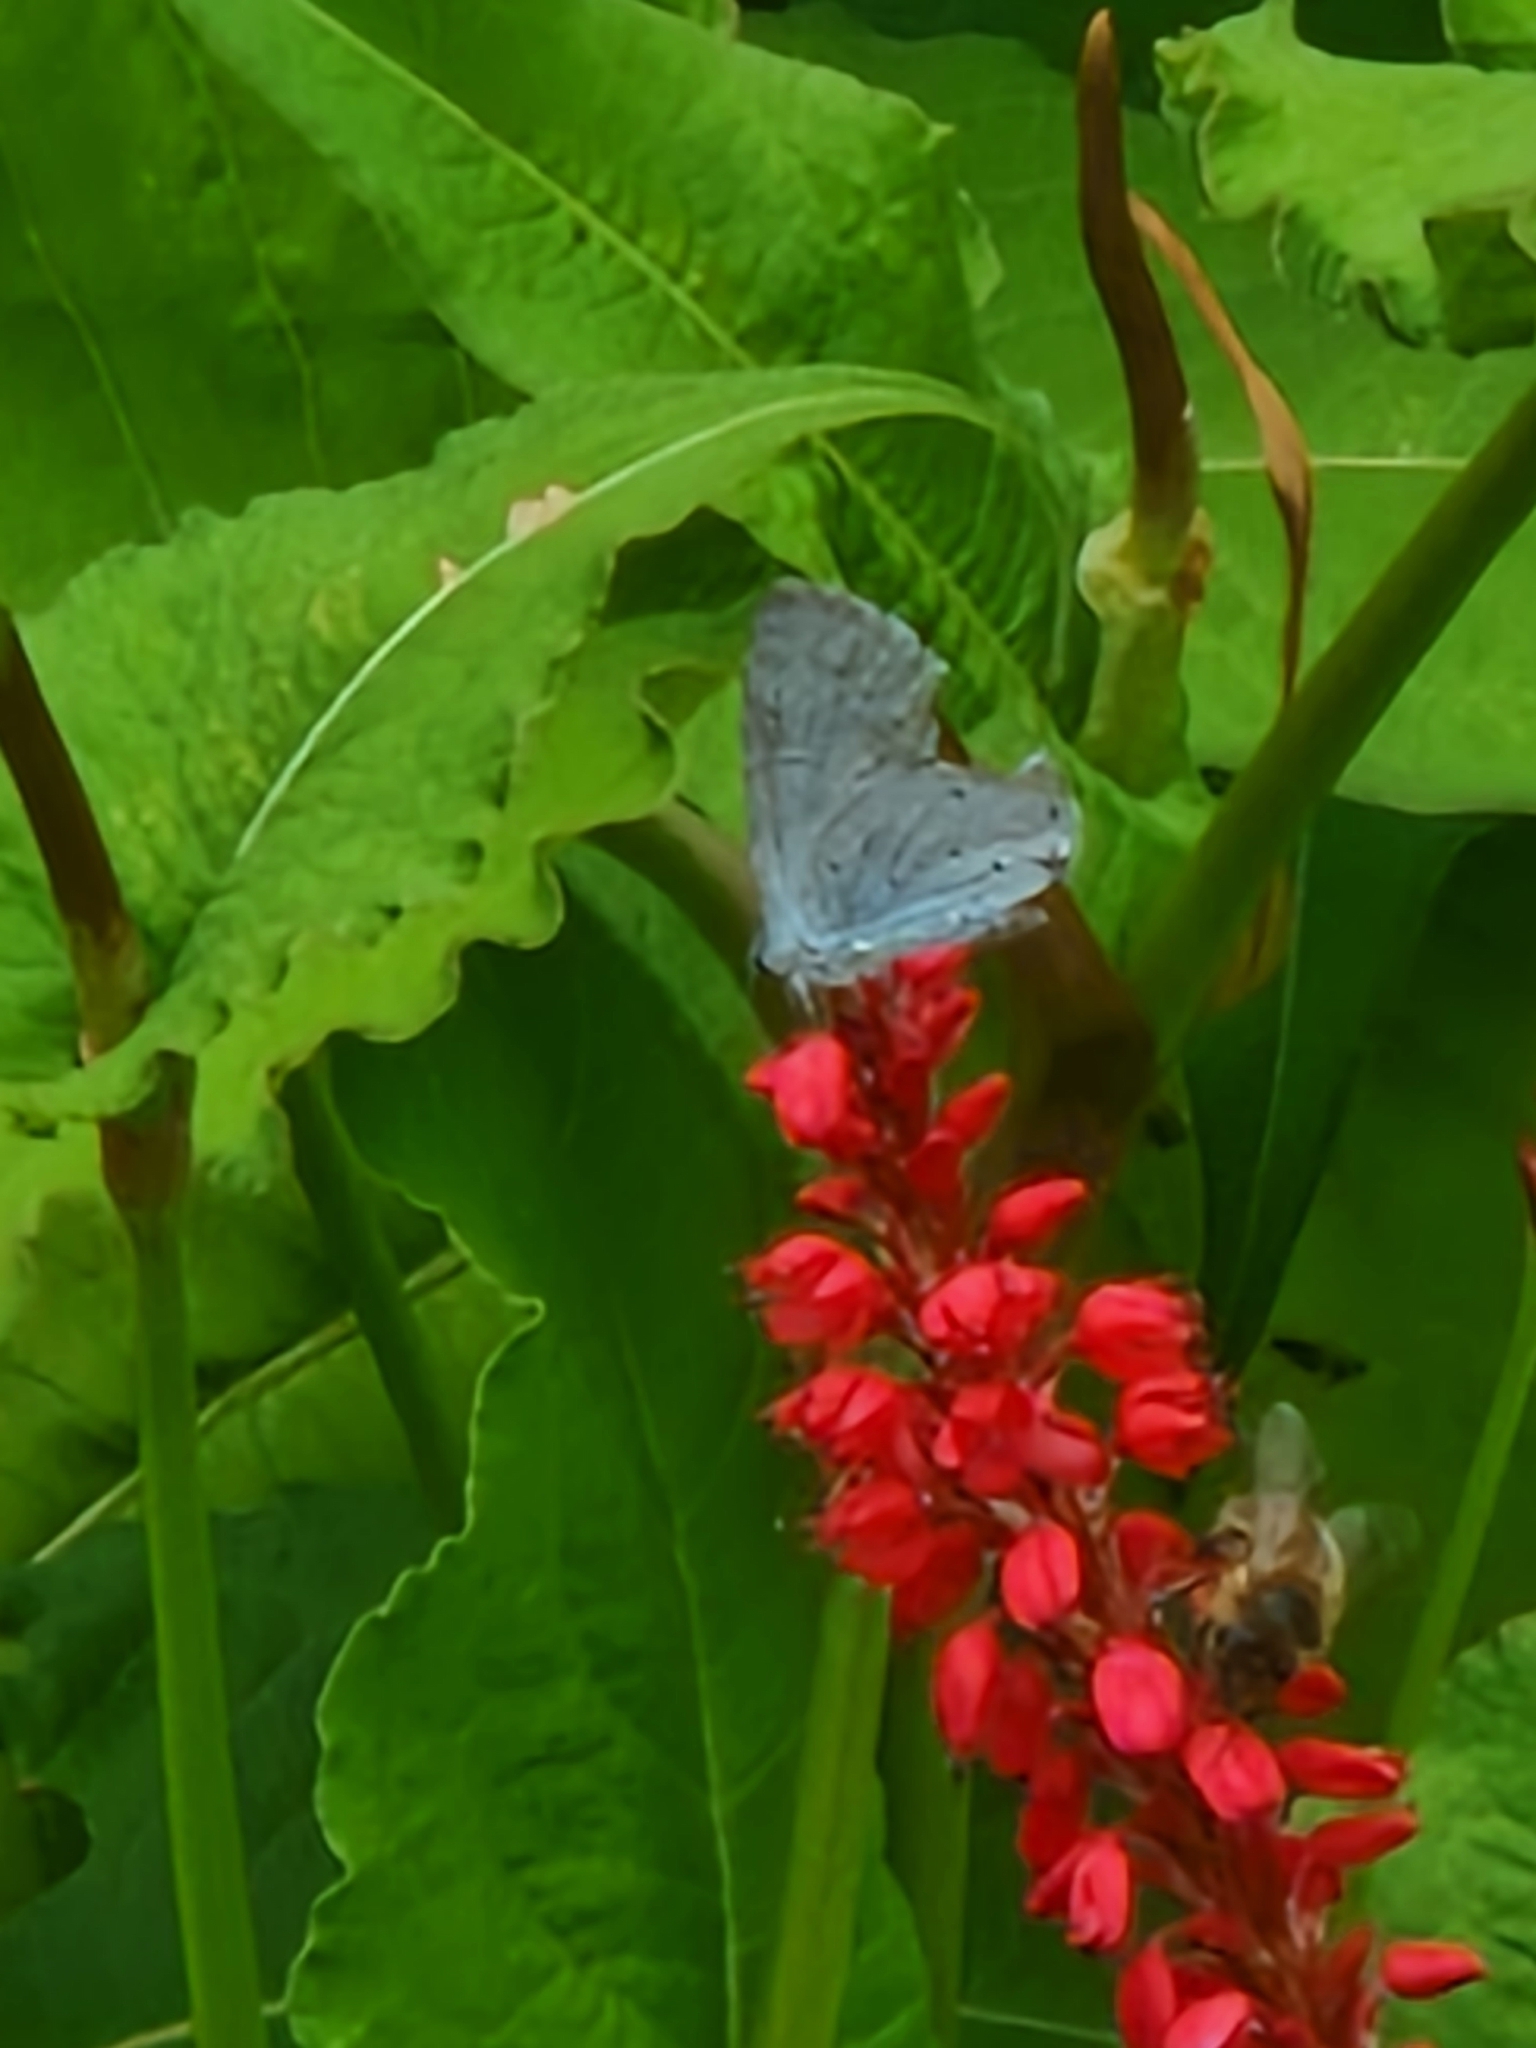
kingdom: Animalia
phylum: Arthropoda
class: Insecta
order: Lepidoptera
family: Lycaenidae
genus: Celastrina
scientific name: Celastrina argiolus
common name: Holly blue
